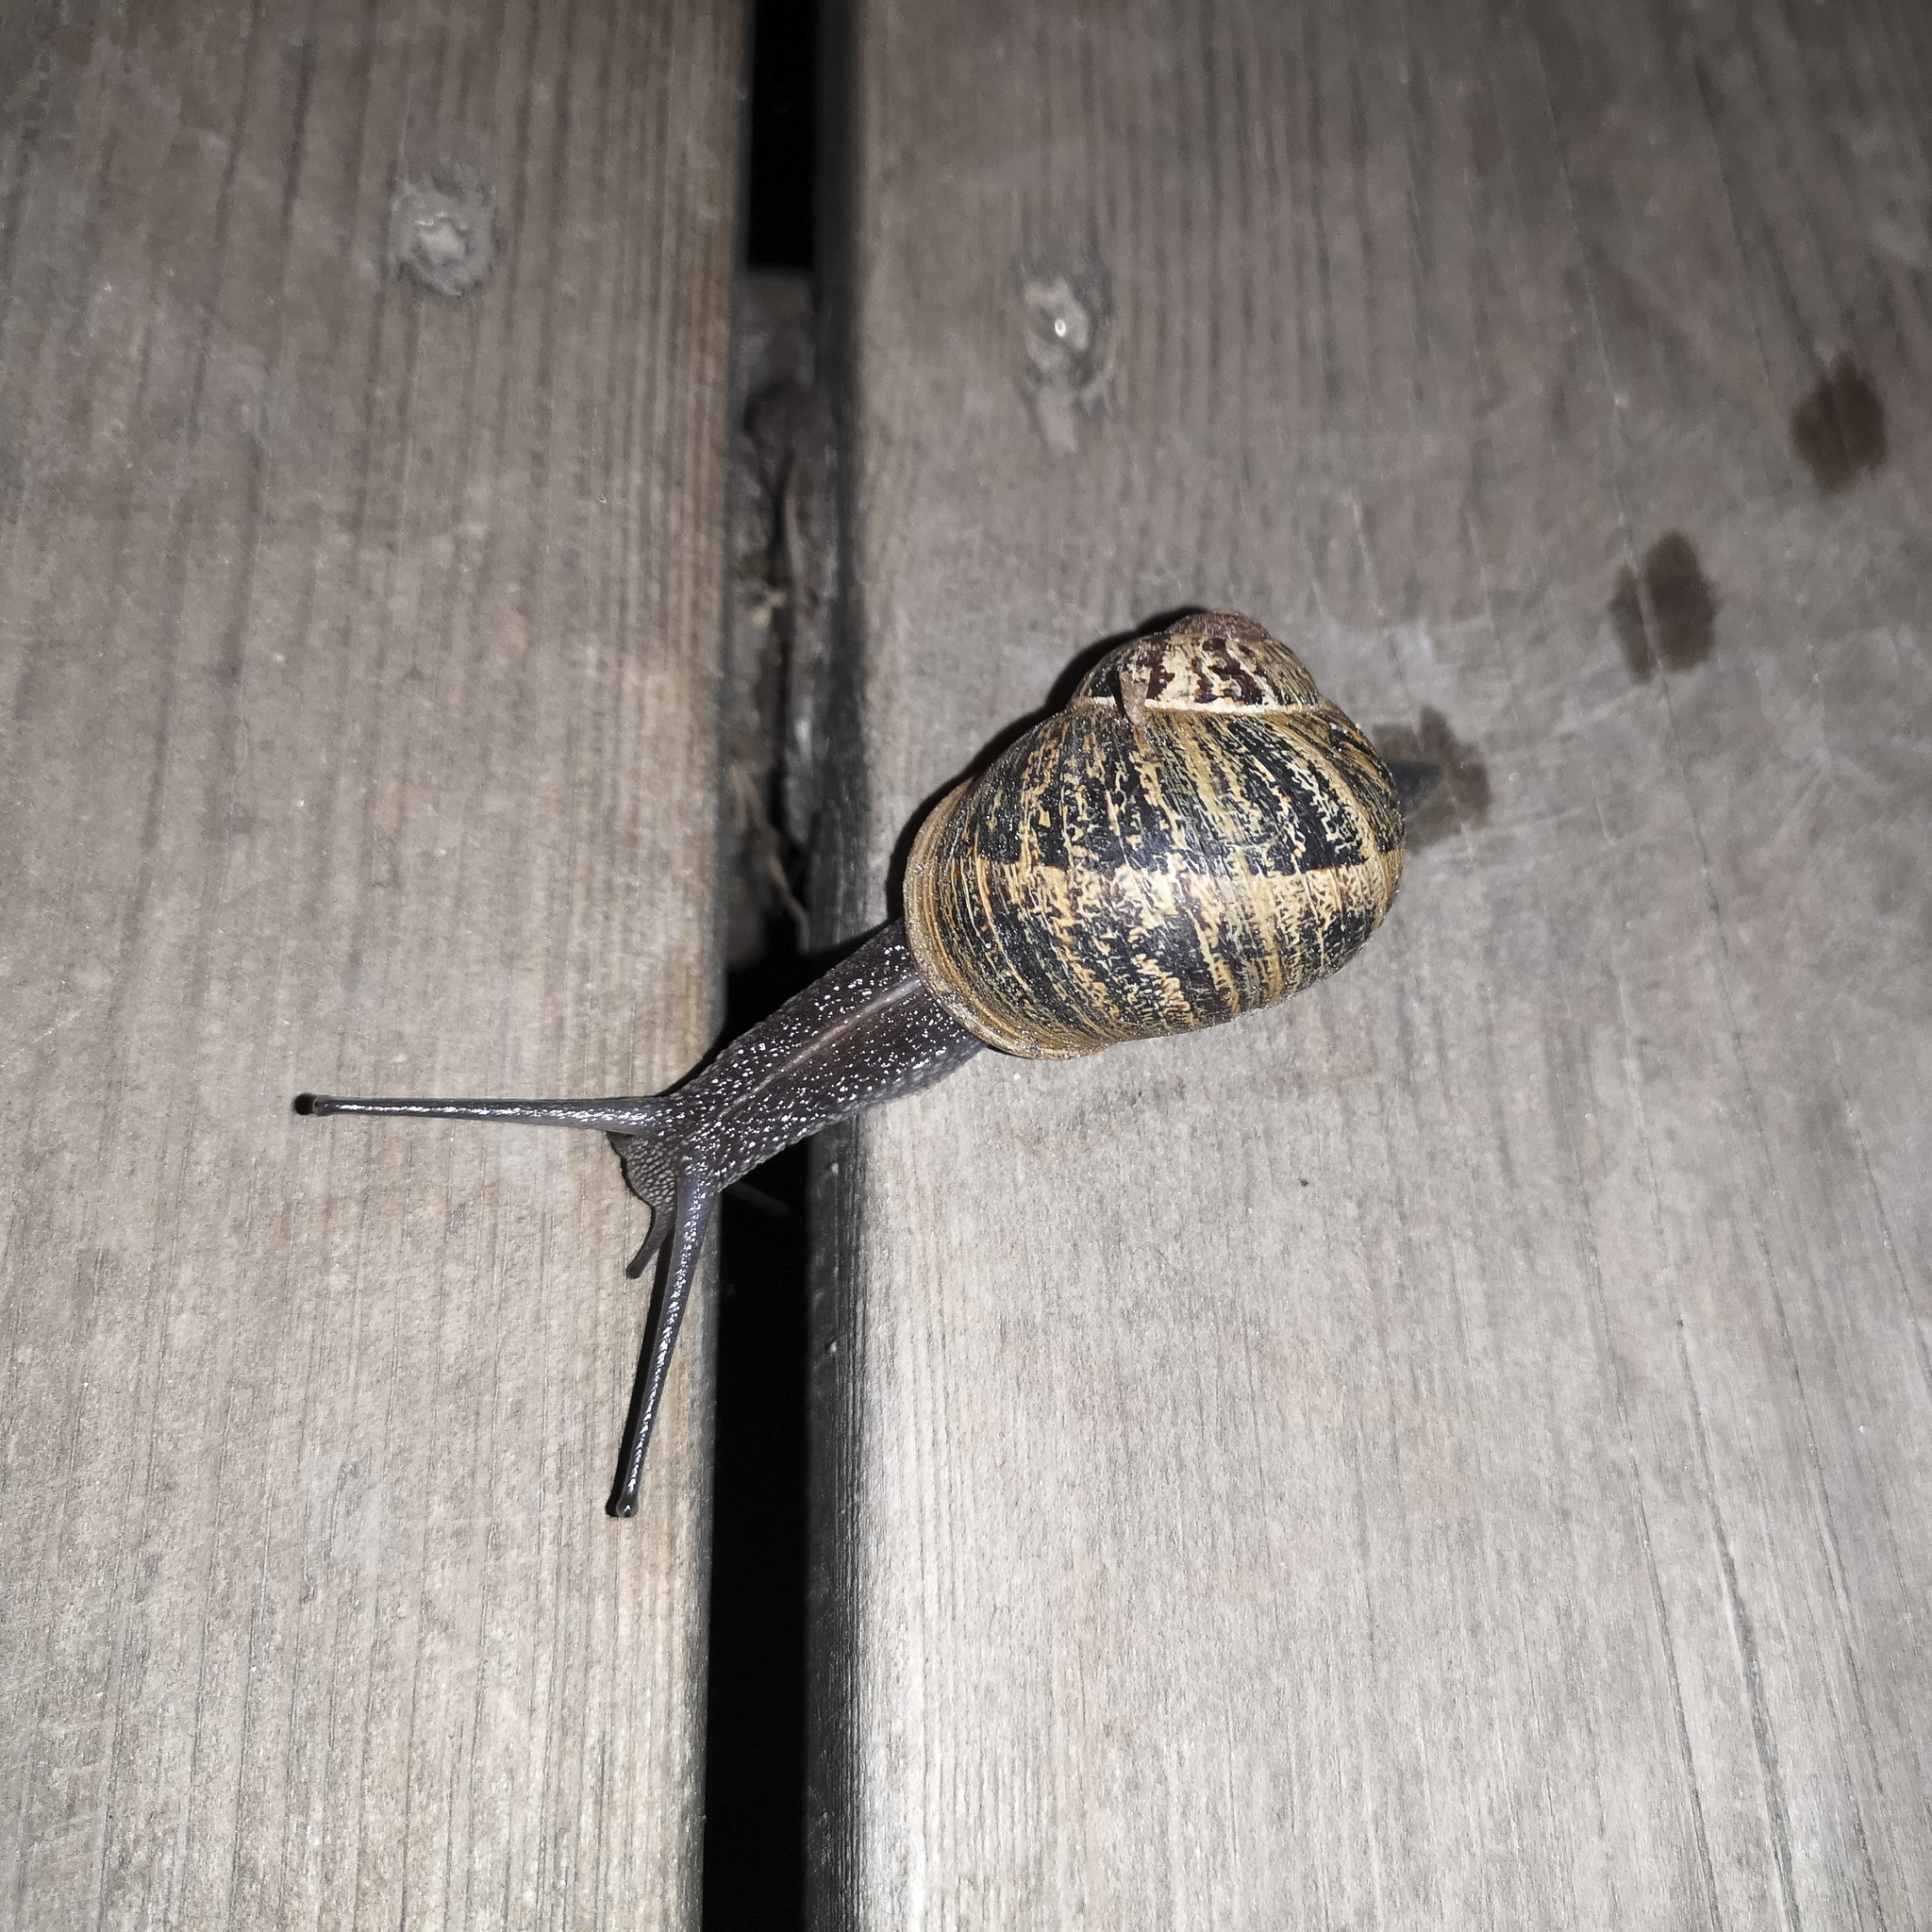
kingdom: Animalia
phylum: Mollusca
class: Gastropoda
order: Stylommatophora
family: Helicidae
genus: Cornu
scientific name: Cornu aspersum
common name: Brown garden snail
